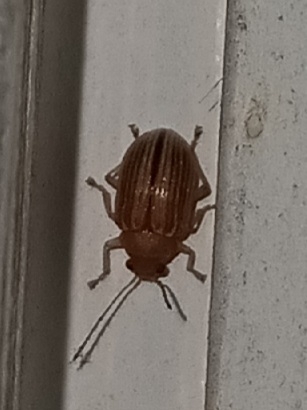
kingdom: Animalia
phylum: Arthropoda
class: Insecta
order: Coleoptera
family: Chrysomelidae
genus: Colaspis
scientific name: Colaspis brunnea
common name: Grape colaspis
